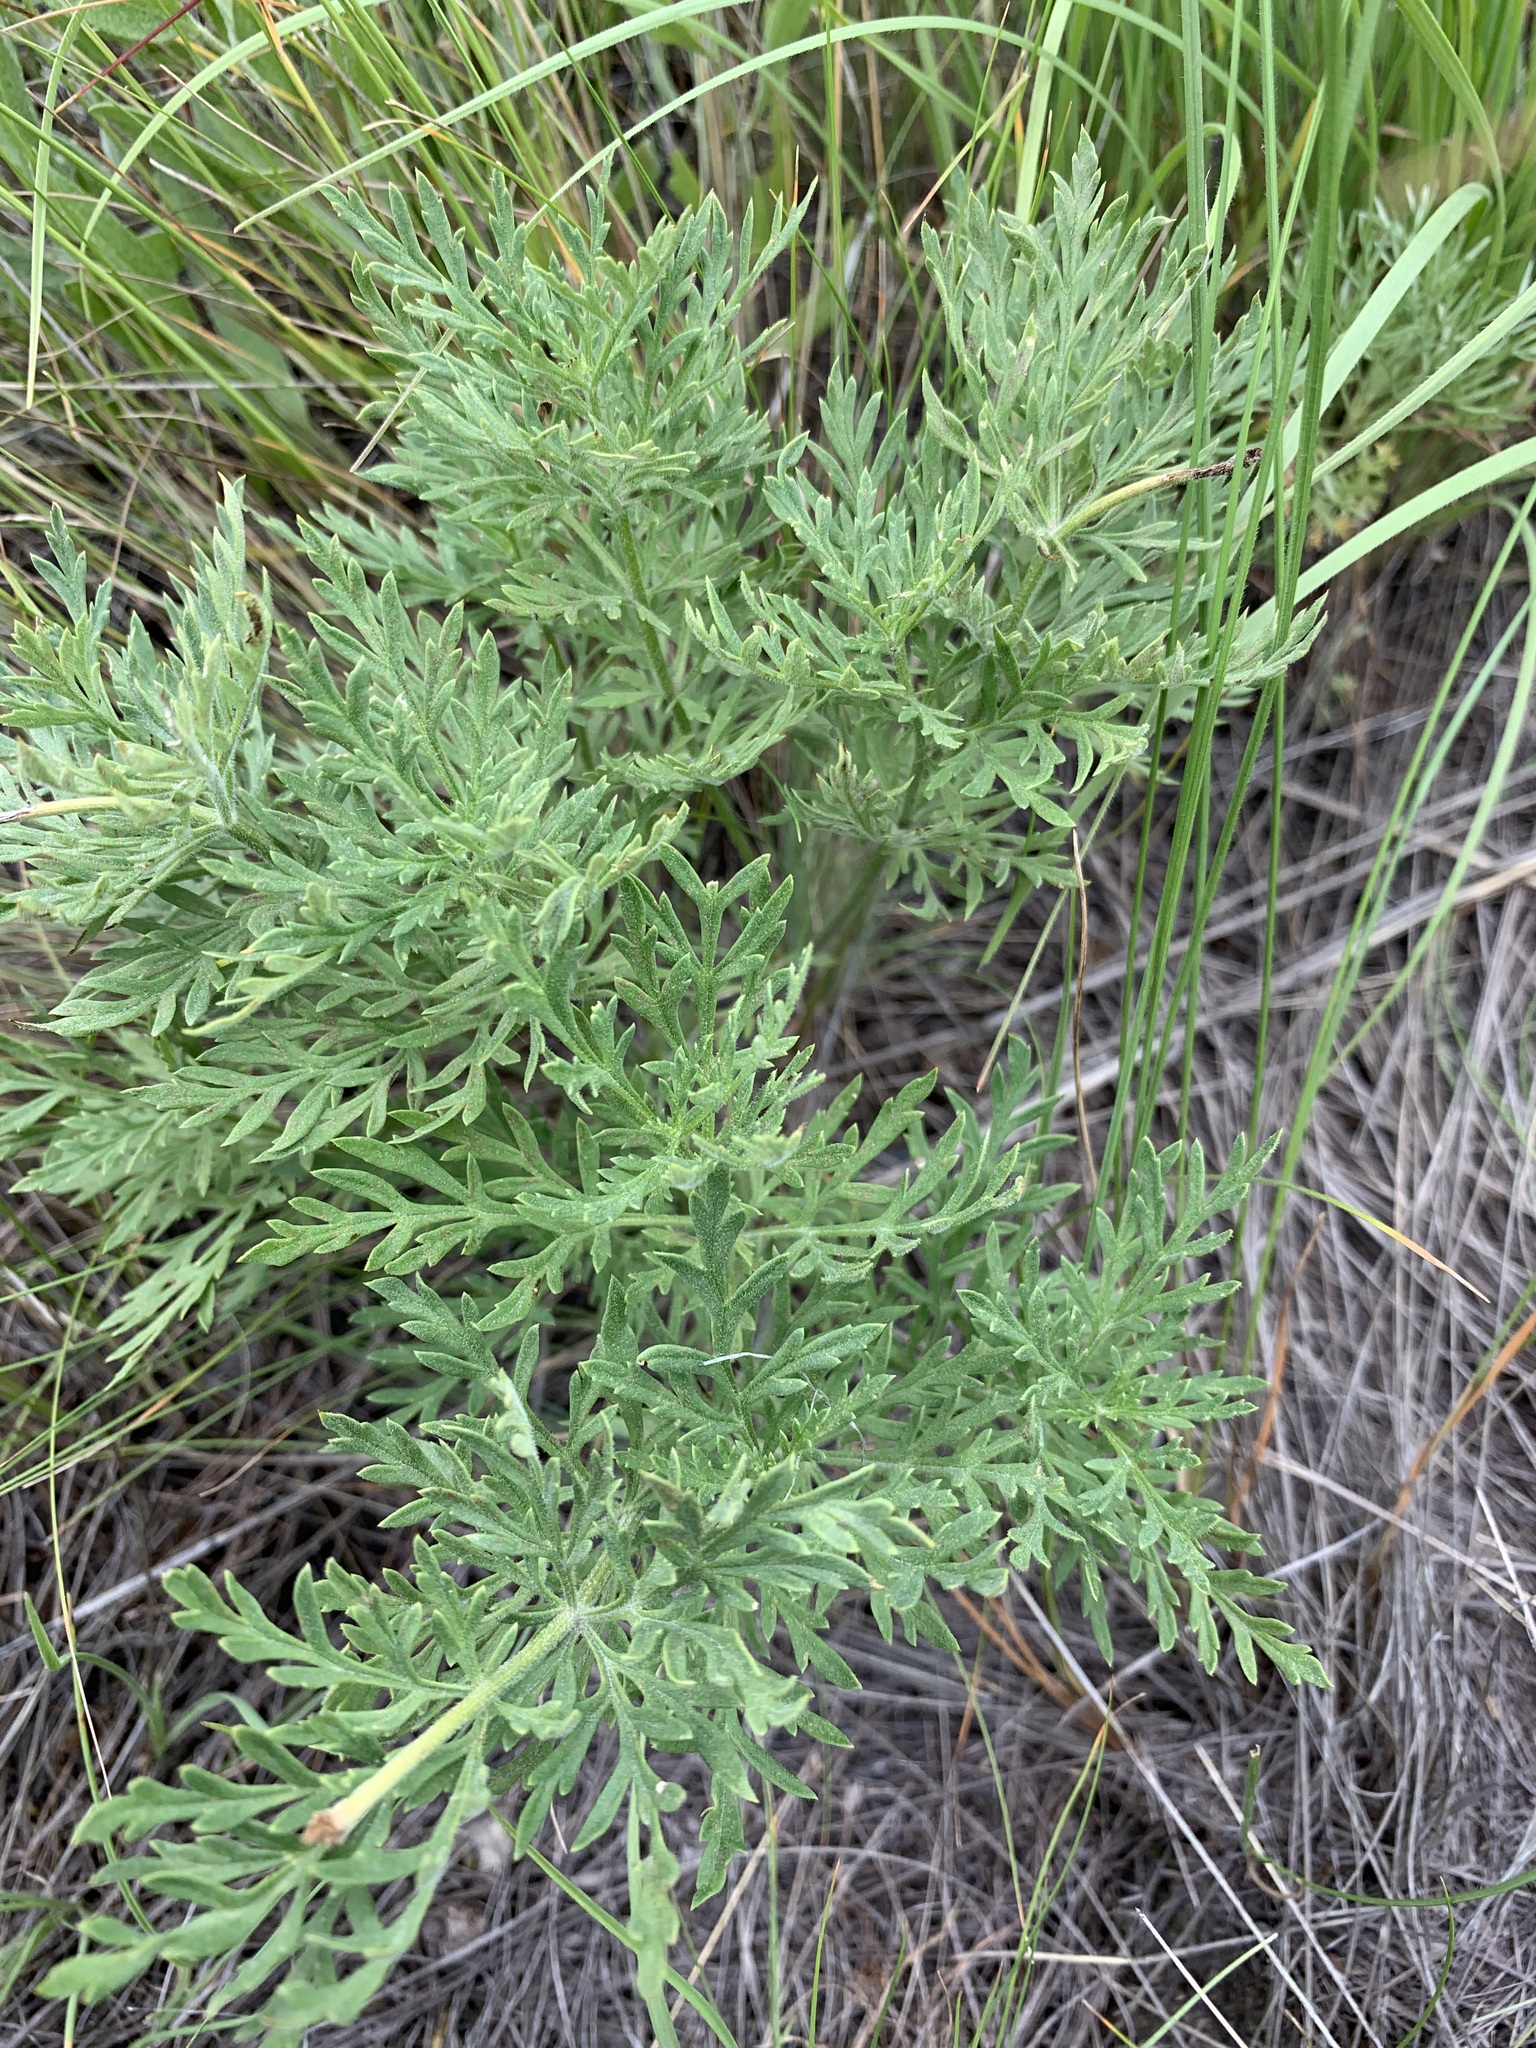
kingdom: Plantae
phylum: Tracheophyta
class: Magnoliopsida
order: Ranunculales
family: Ranunculaceae
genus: Adonis
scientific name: Adonis volgensis
